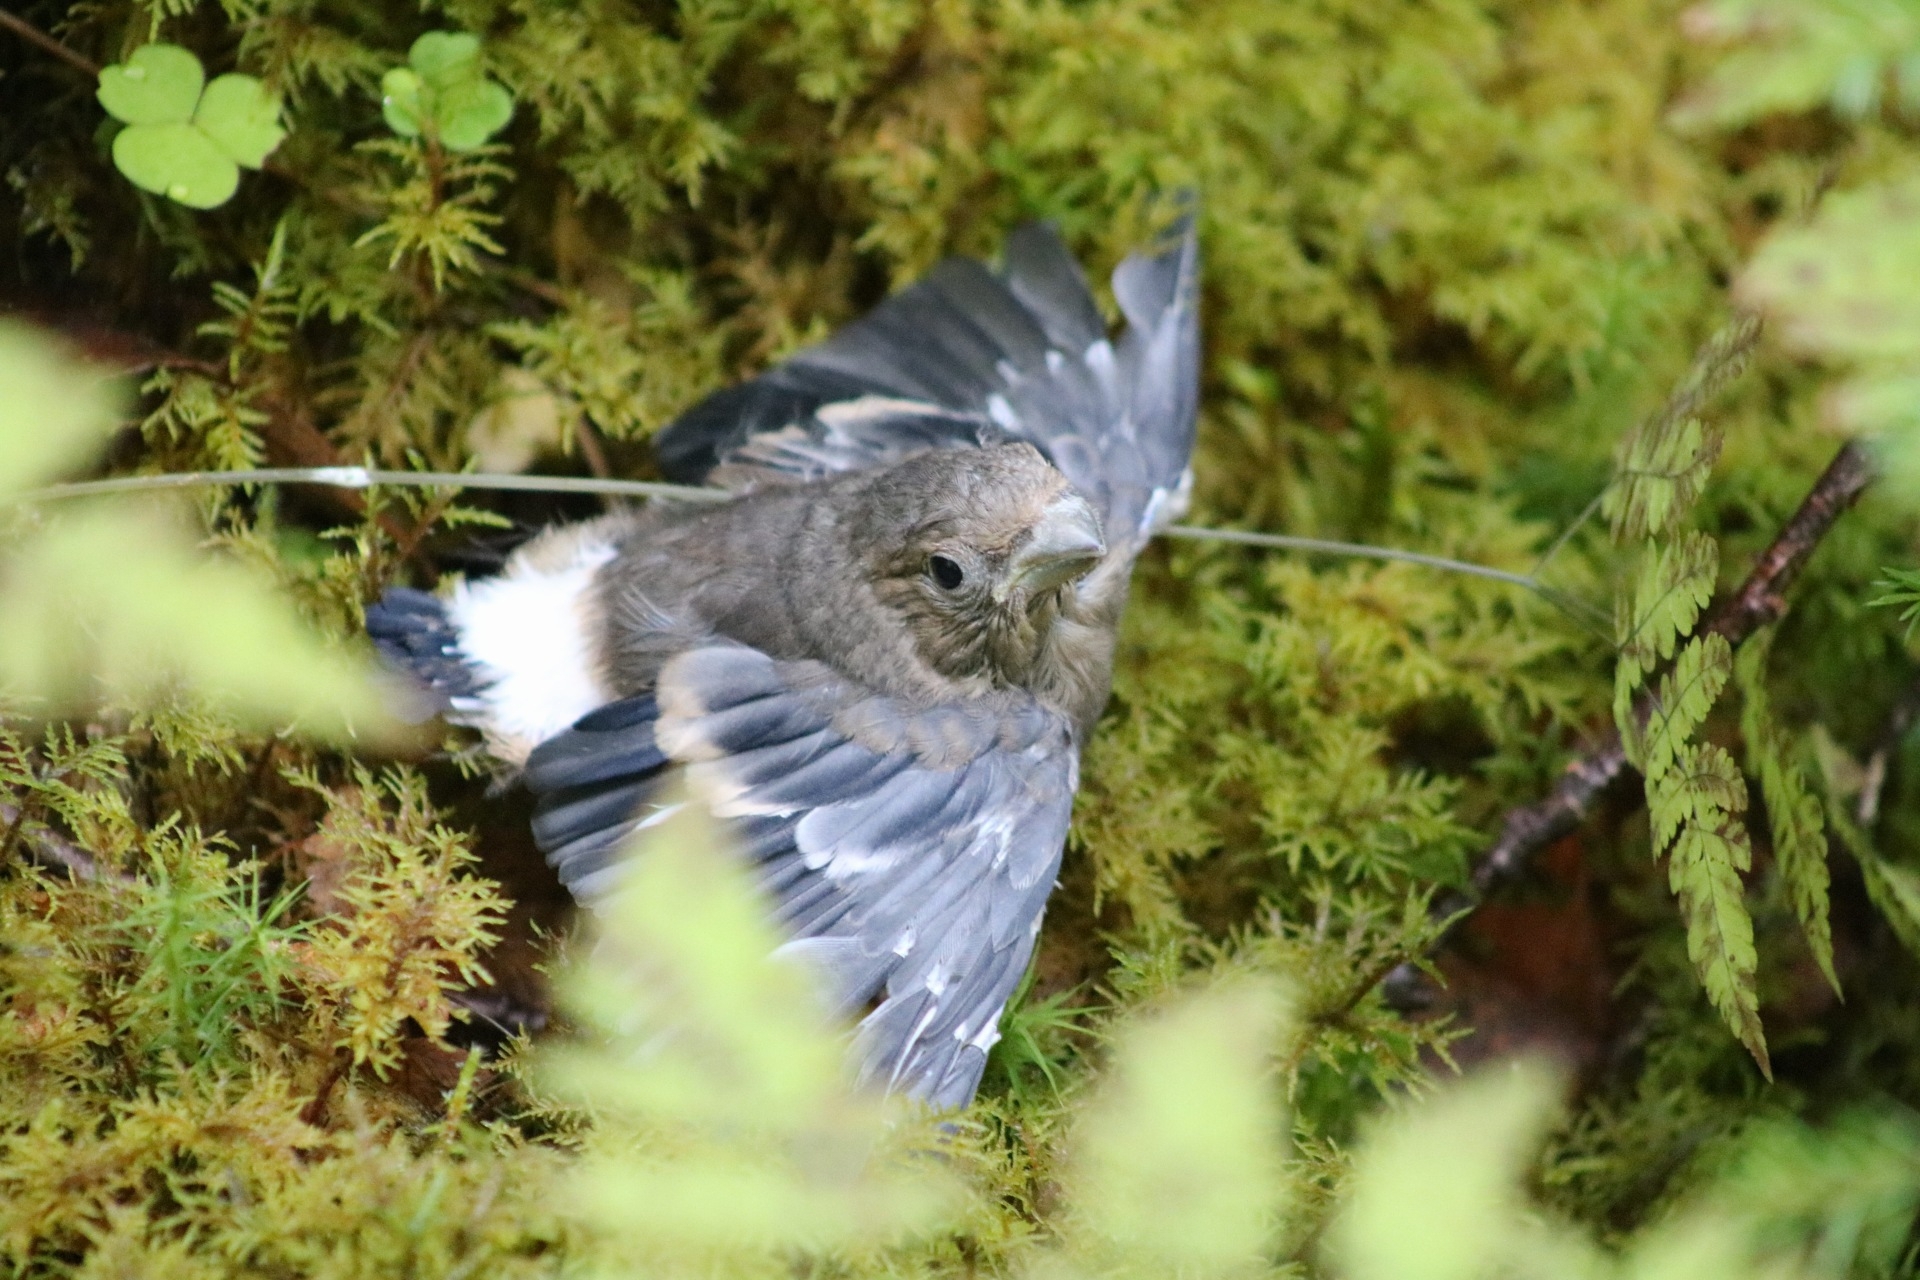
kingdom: Animalia
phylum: Chordata
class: Aves
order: Passeriformes
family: Fringillidae
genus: Pyrrhula
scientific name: Pyrrhula pyrrhula
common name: Eurasian bullfinch
